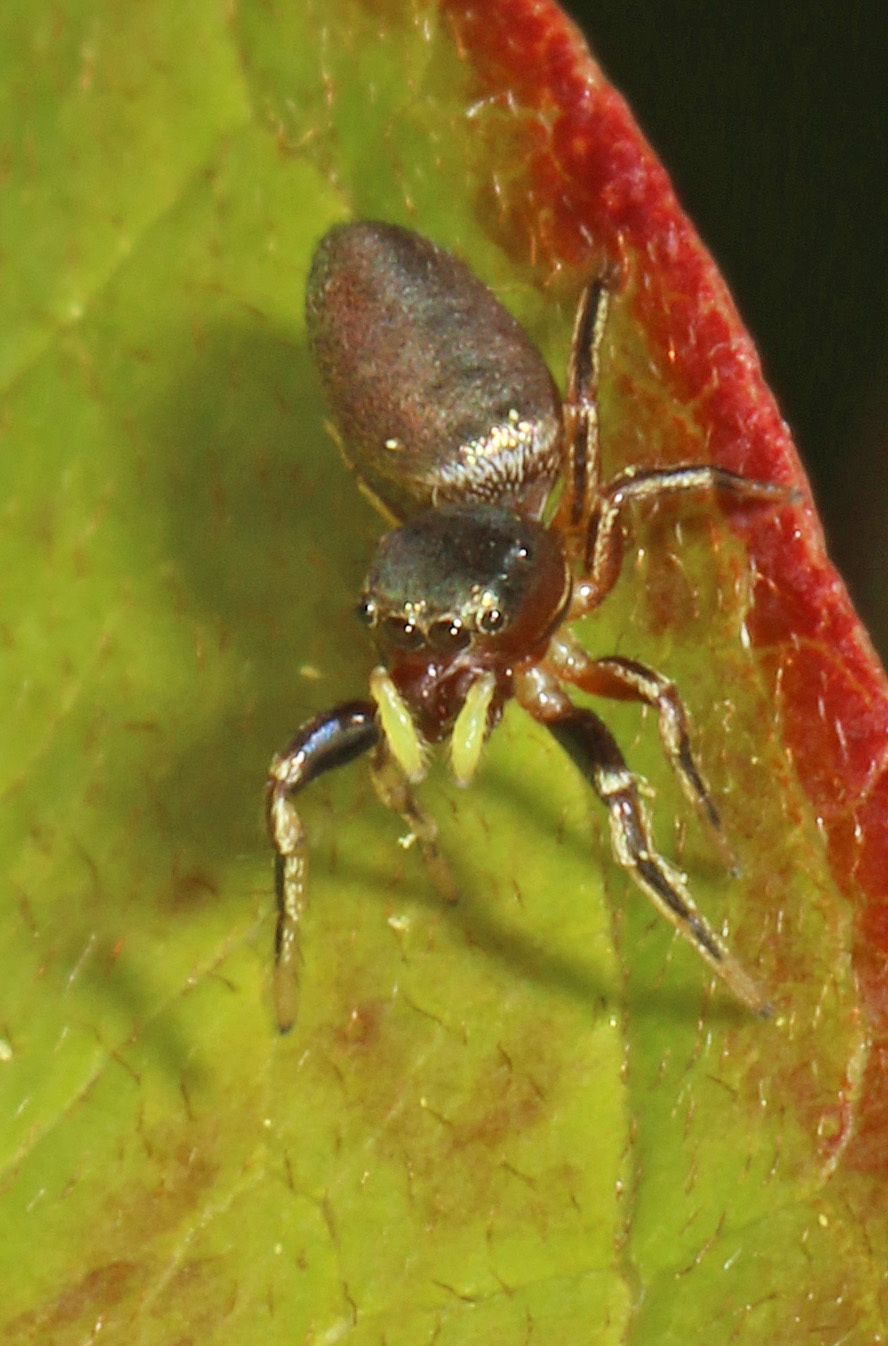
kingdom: Animalia
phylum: Arthropoda
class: Arachnida
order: Araneae
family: Salticidae
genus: Tutelina
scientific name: Tutelina elegans
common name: Thin-spined jumping spider
